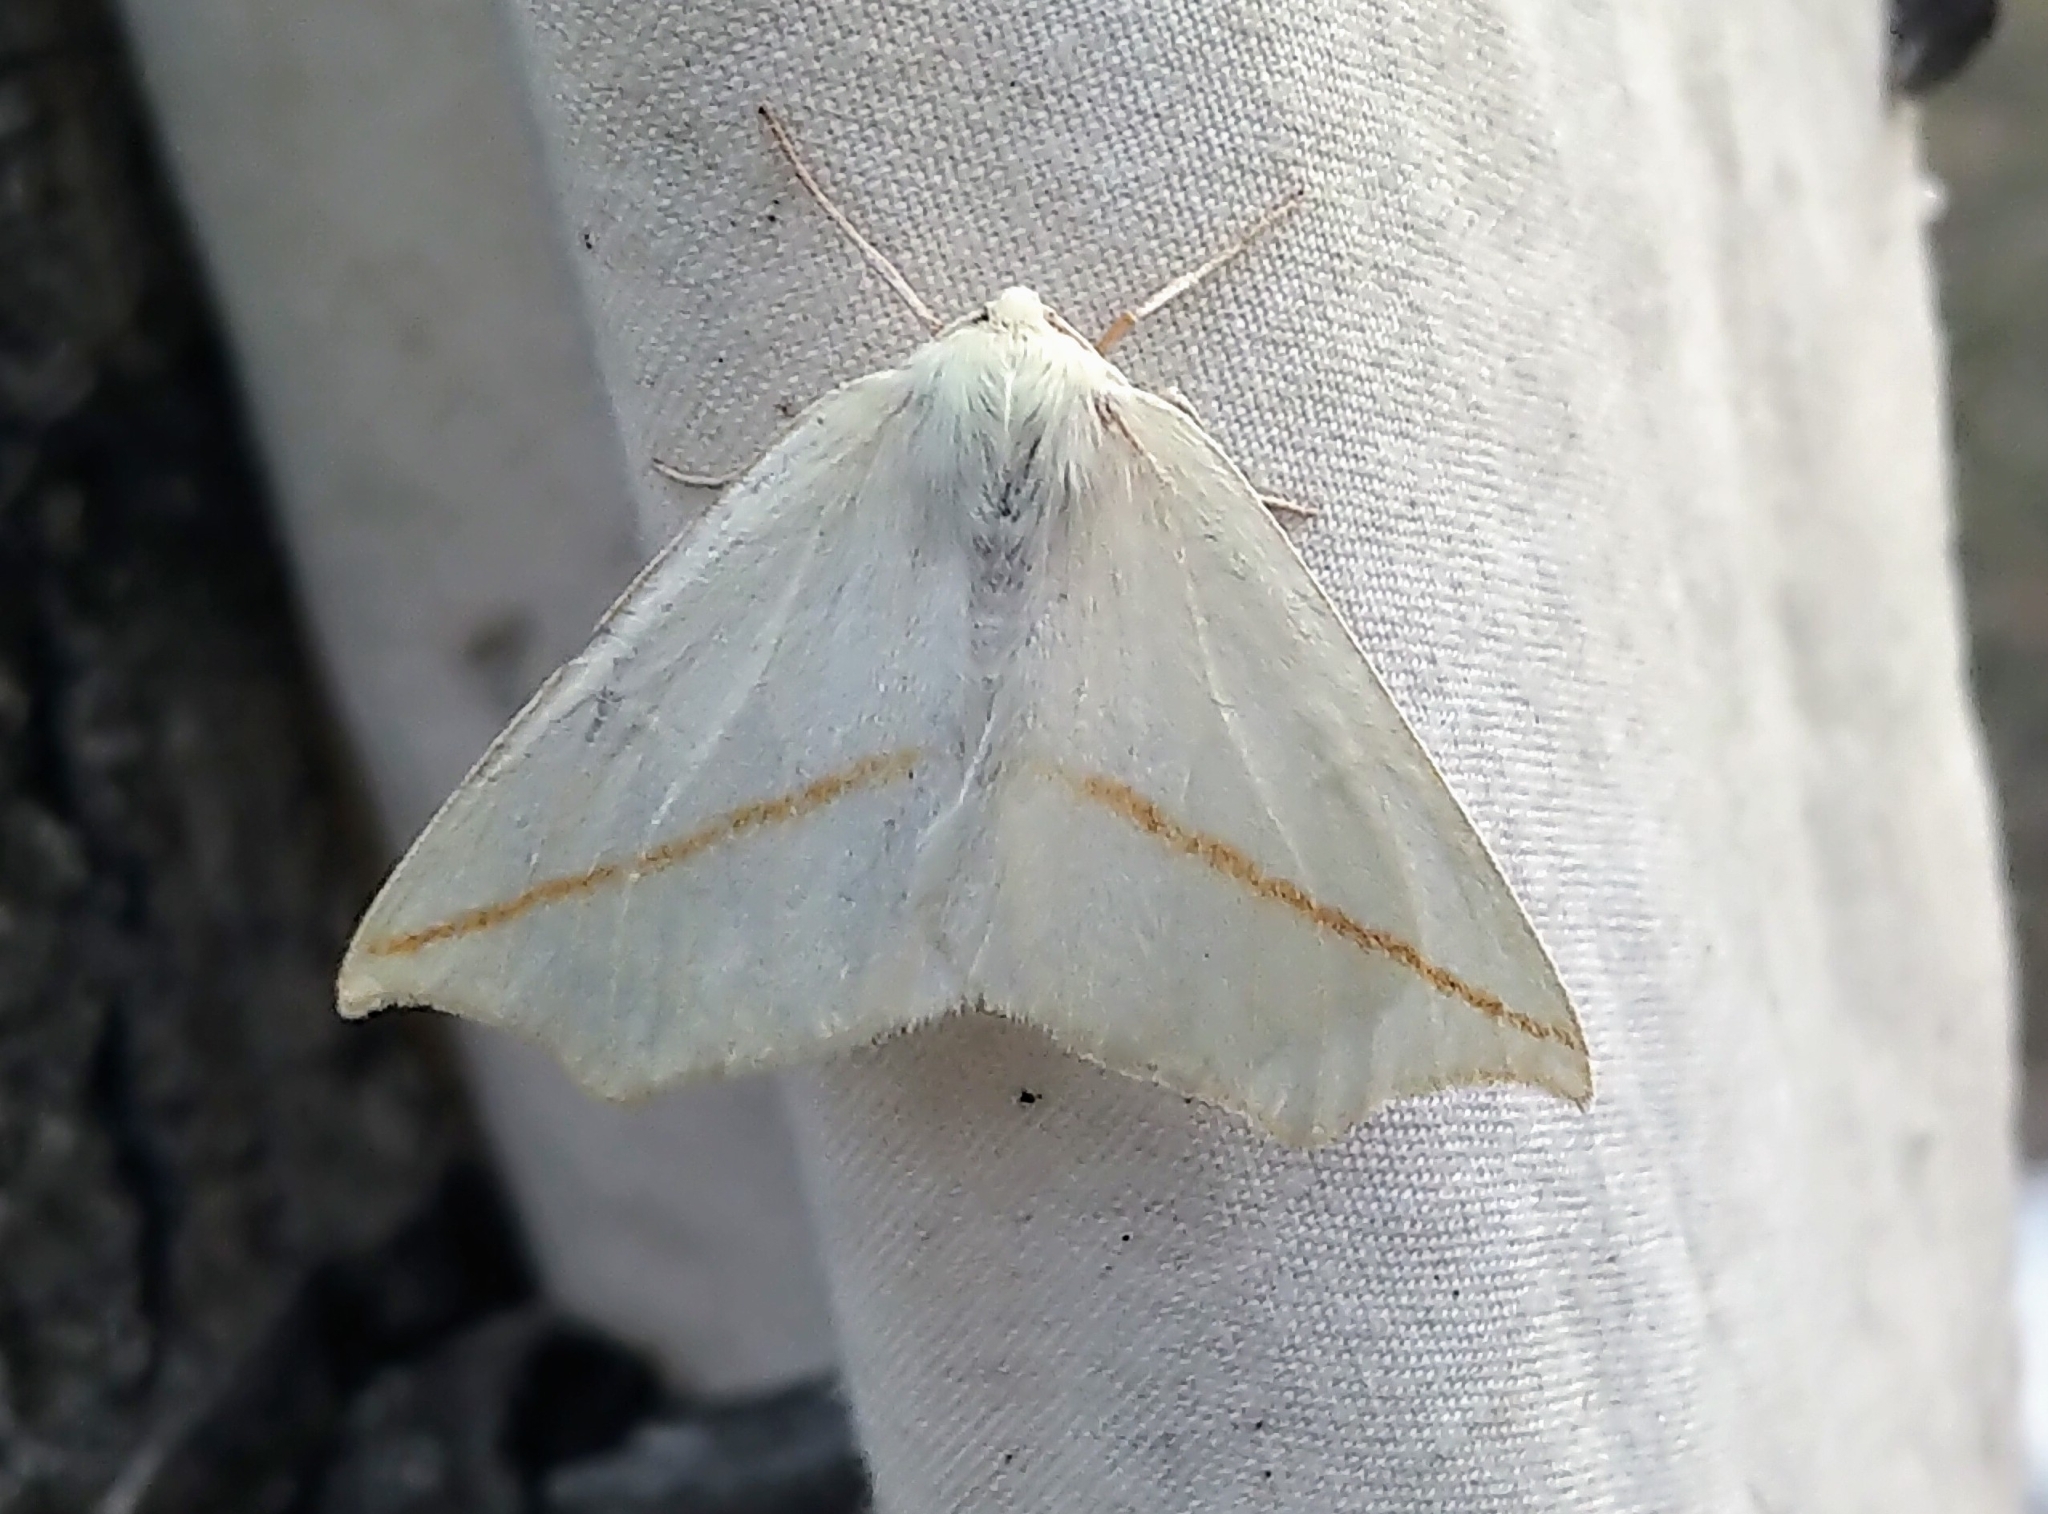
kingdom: Animalia
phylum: Arthropoda
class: Insecta
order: Lepidoptera
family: Geometridae
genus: Tetracis
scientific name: Tetracis cachexiata
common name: White slant-line
